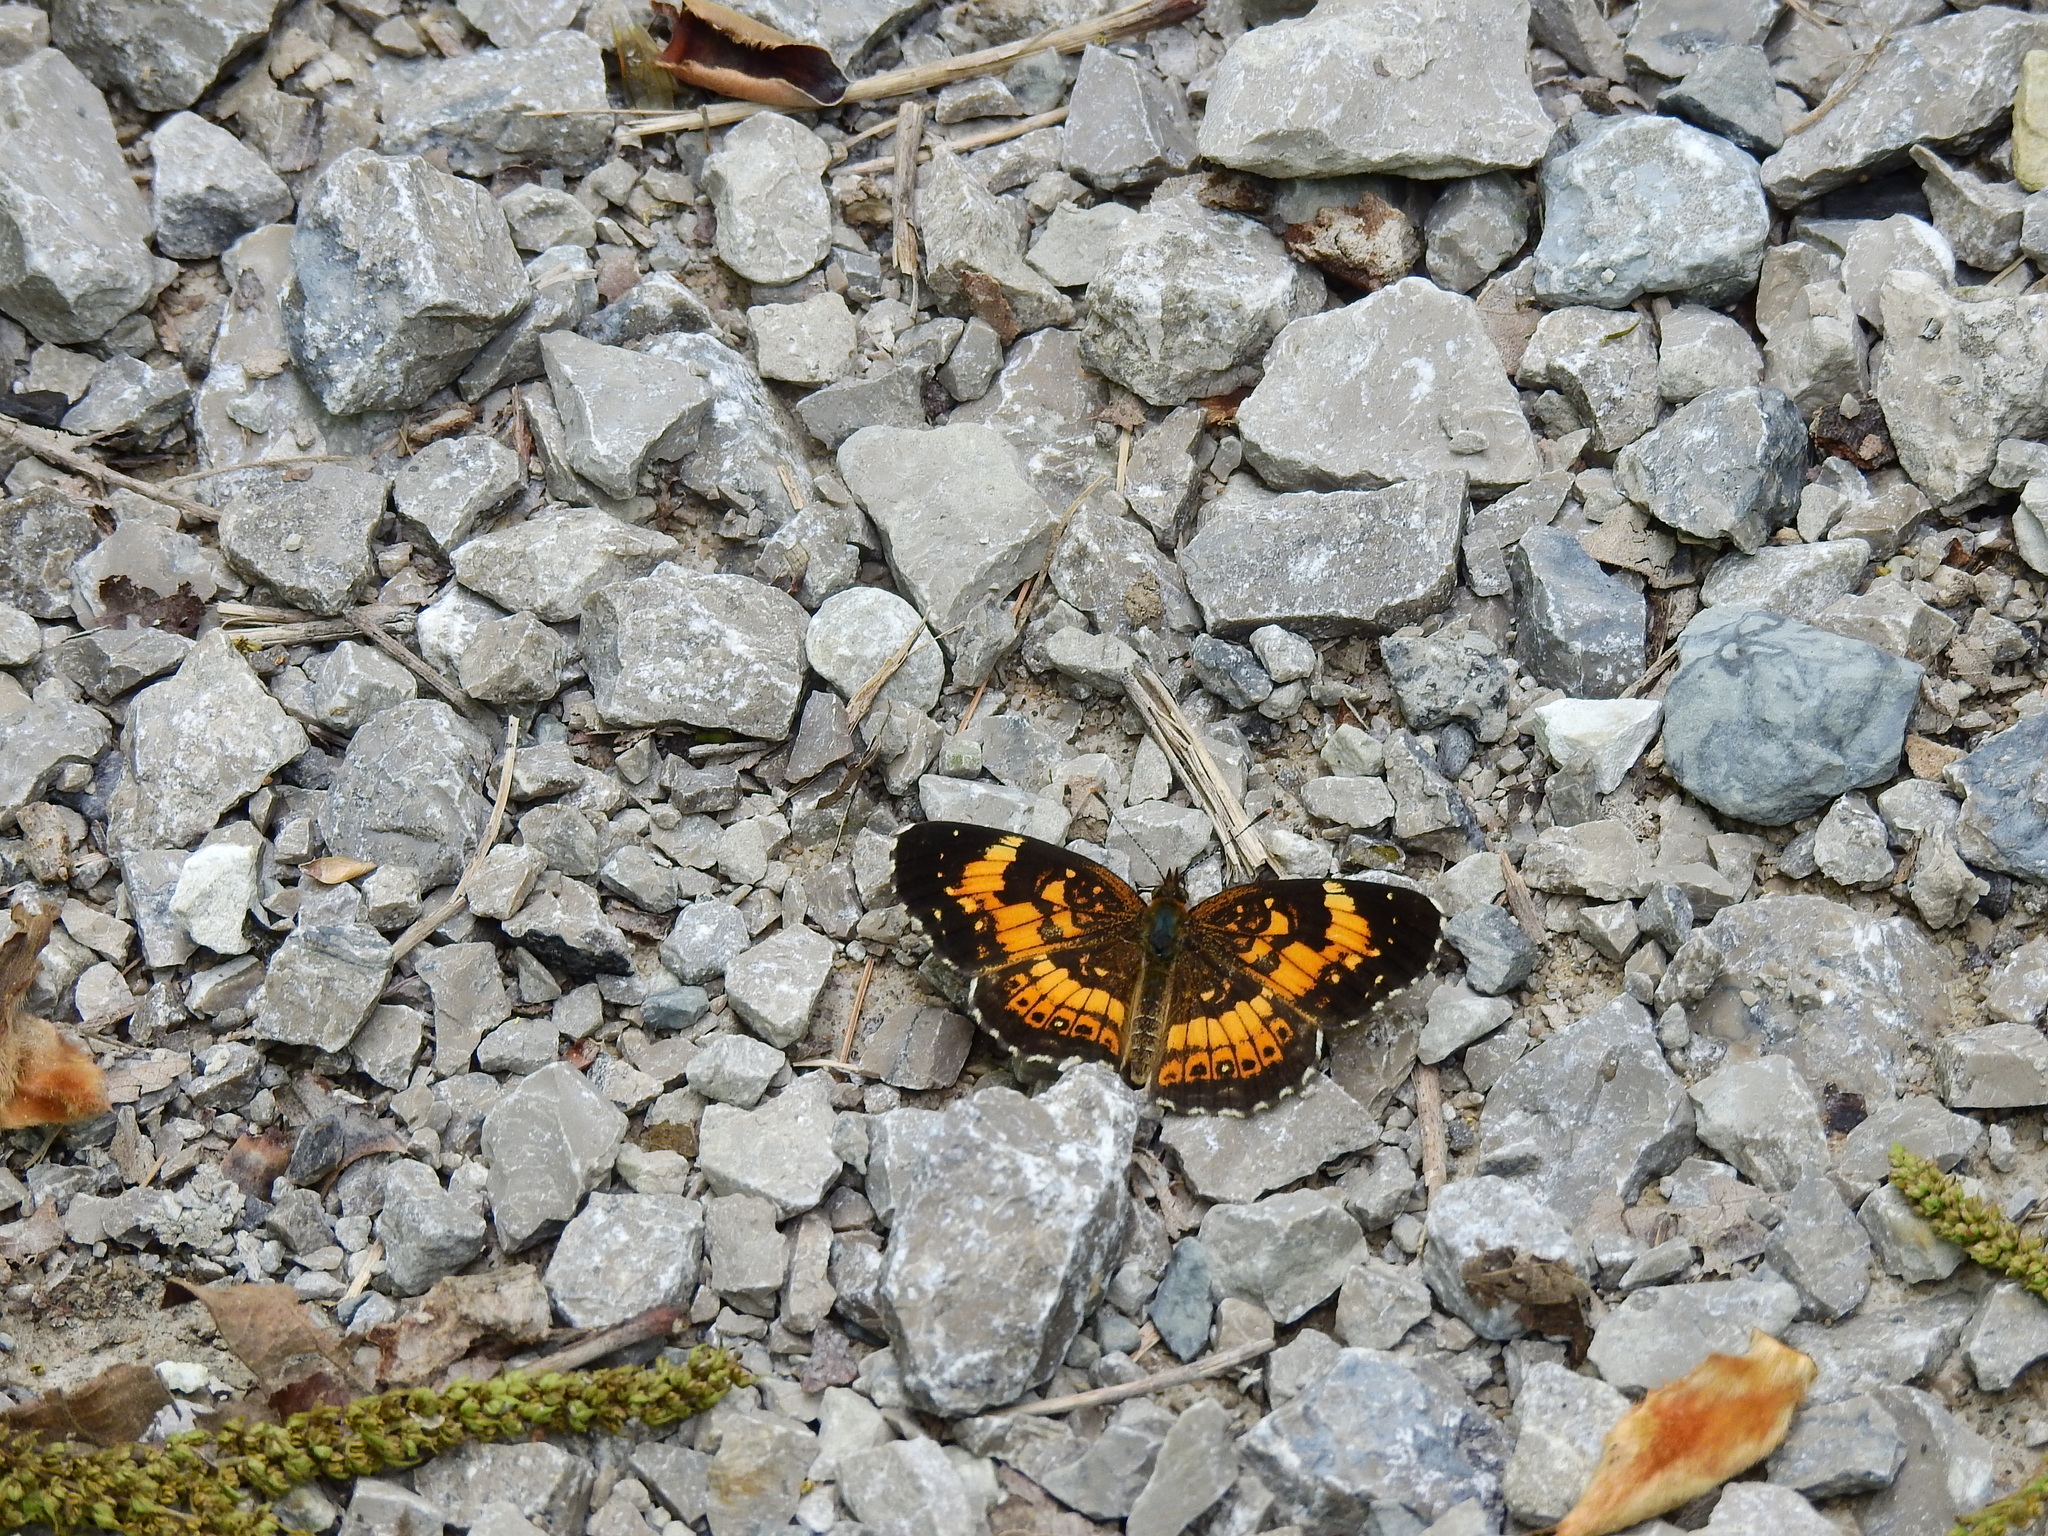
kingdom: Animalia
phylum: Arthropoda
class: Insecta
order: Lepidoptera
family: Nymphalidae
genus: Chlosyne
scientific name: Chlosyne nycteis
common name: Silvery checkerspot
